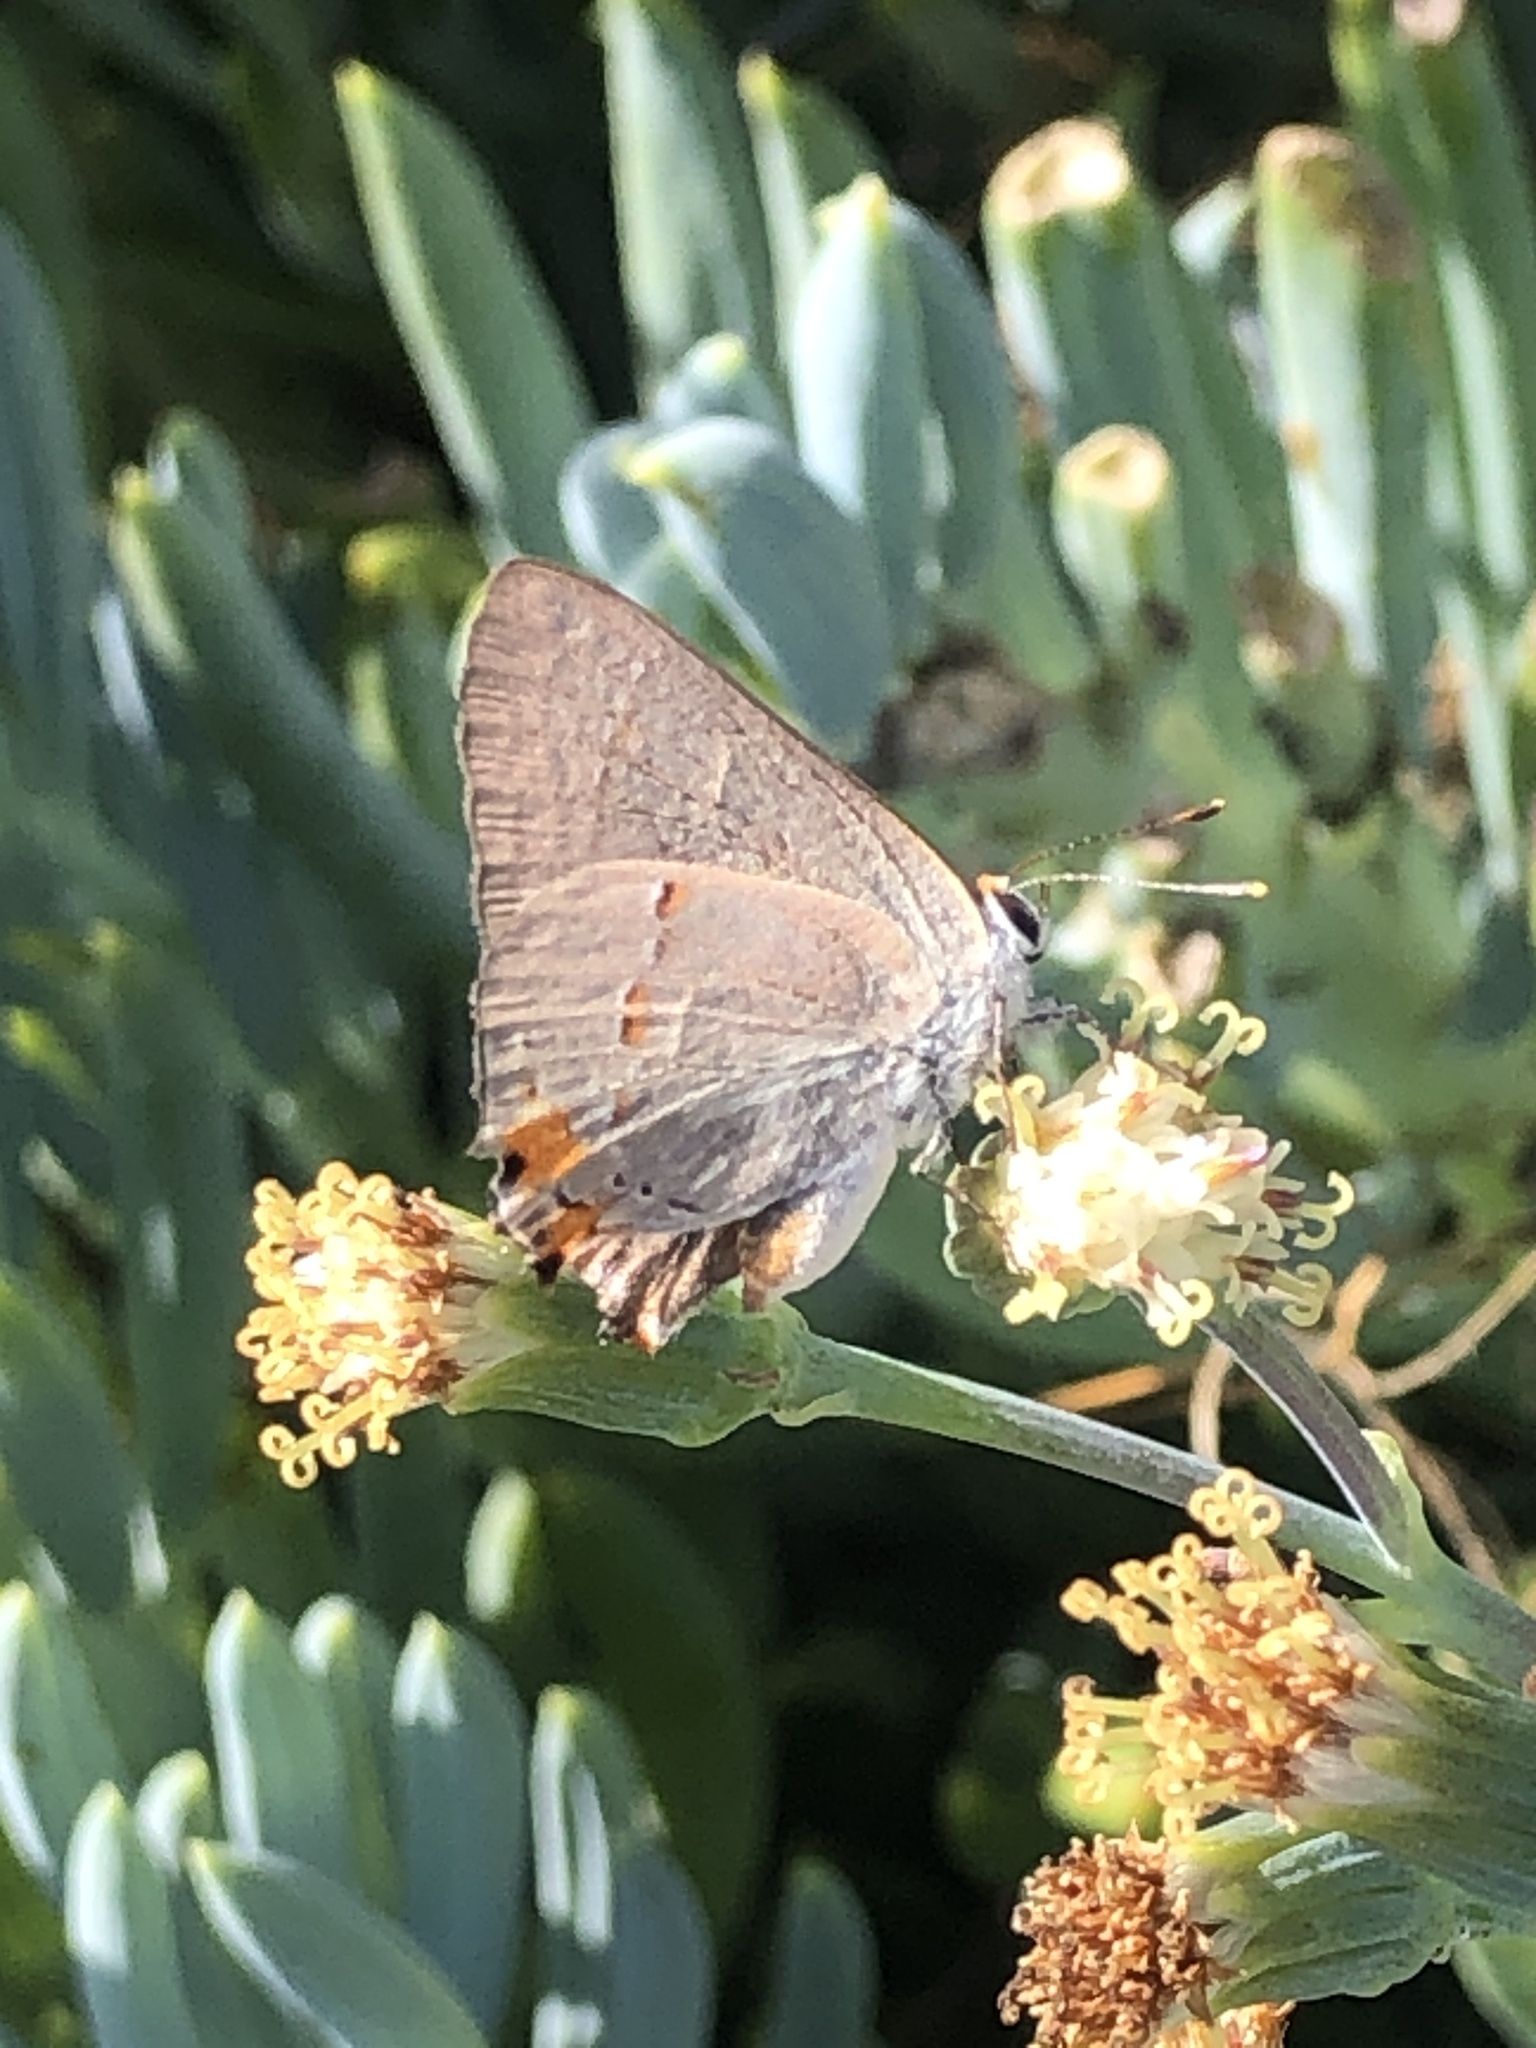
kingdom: Animalia
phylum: Arthropoda
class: Insecta
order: Lepidoptera
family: Lycaenidae
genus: Strymon
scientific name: Strymon melinus
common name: Gray hairstreak
